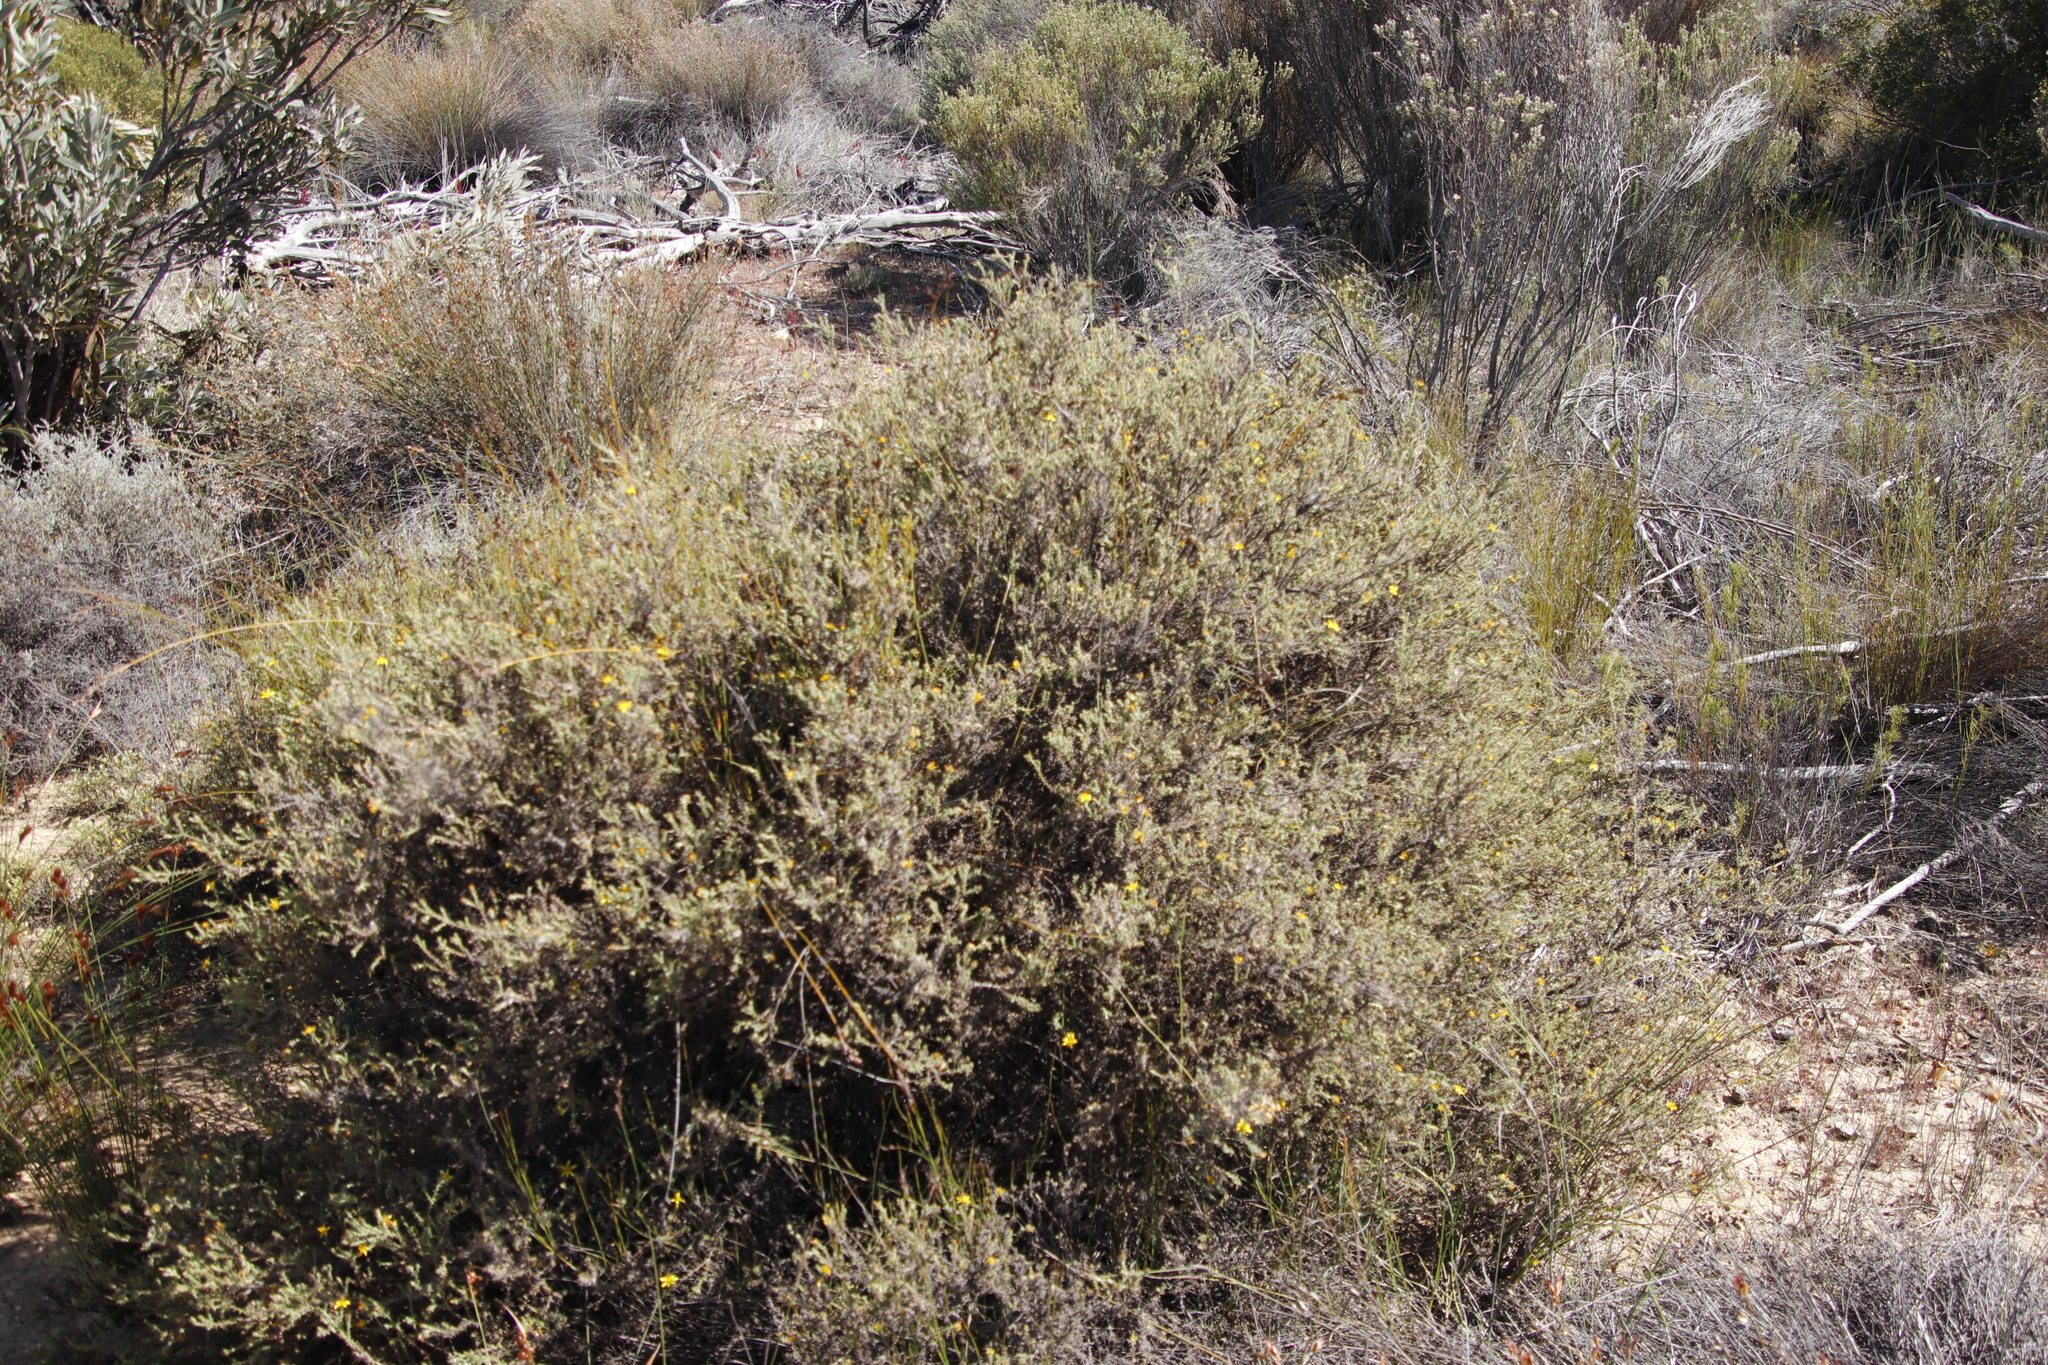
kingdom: Plantae
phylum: Tracheophyta
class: Magnoliopsida
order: Asterales
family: Asteraceae
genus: Cullumia
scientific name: Cullumia rigida
